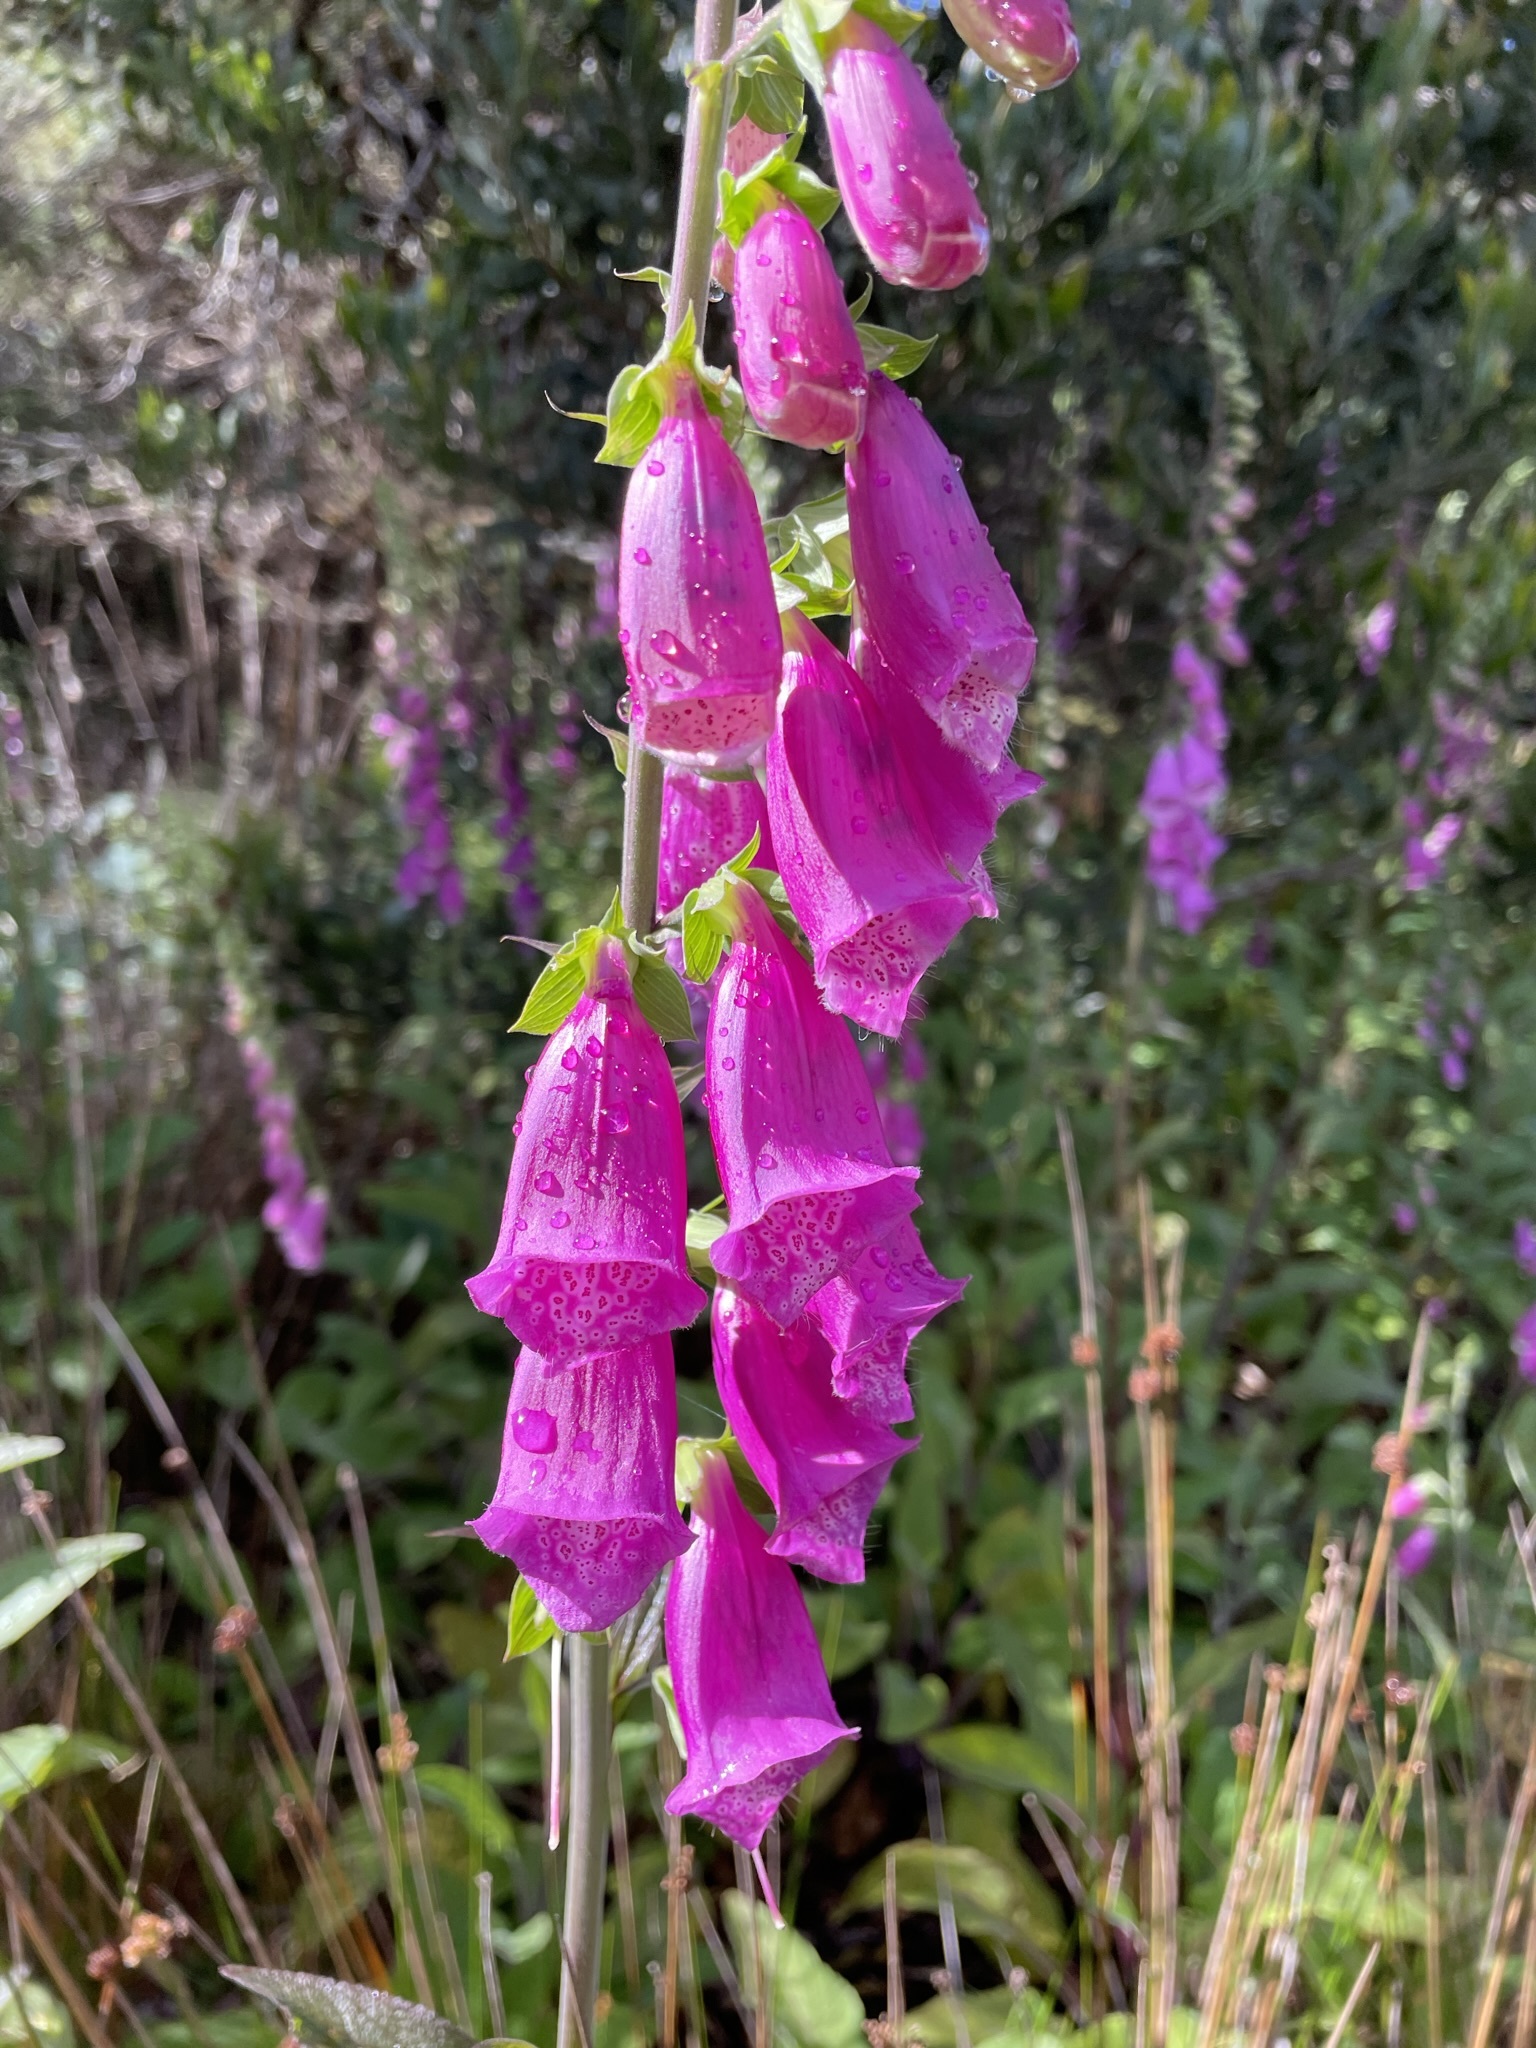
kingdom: Plantae
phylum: Tracheophyta
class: Magnoliopsida
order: Lamiales
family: Plantaginaceae
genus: Digitalis
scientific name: Digitalis purpurea
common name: Foxglove
